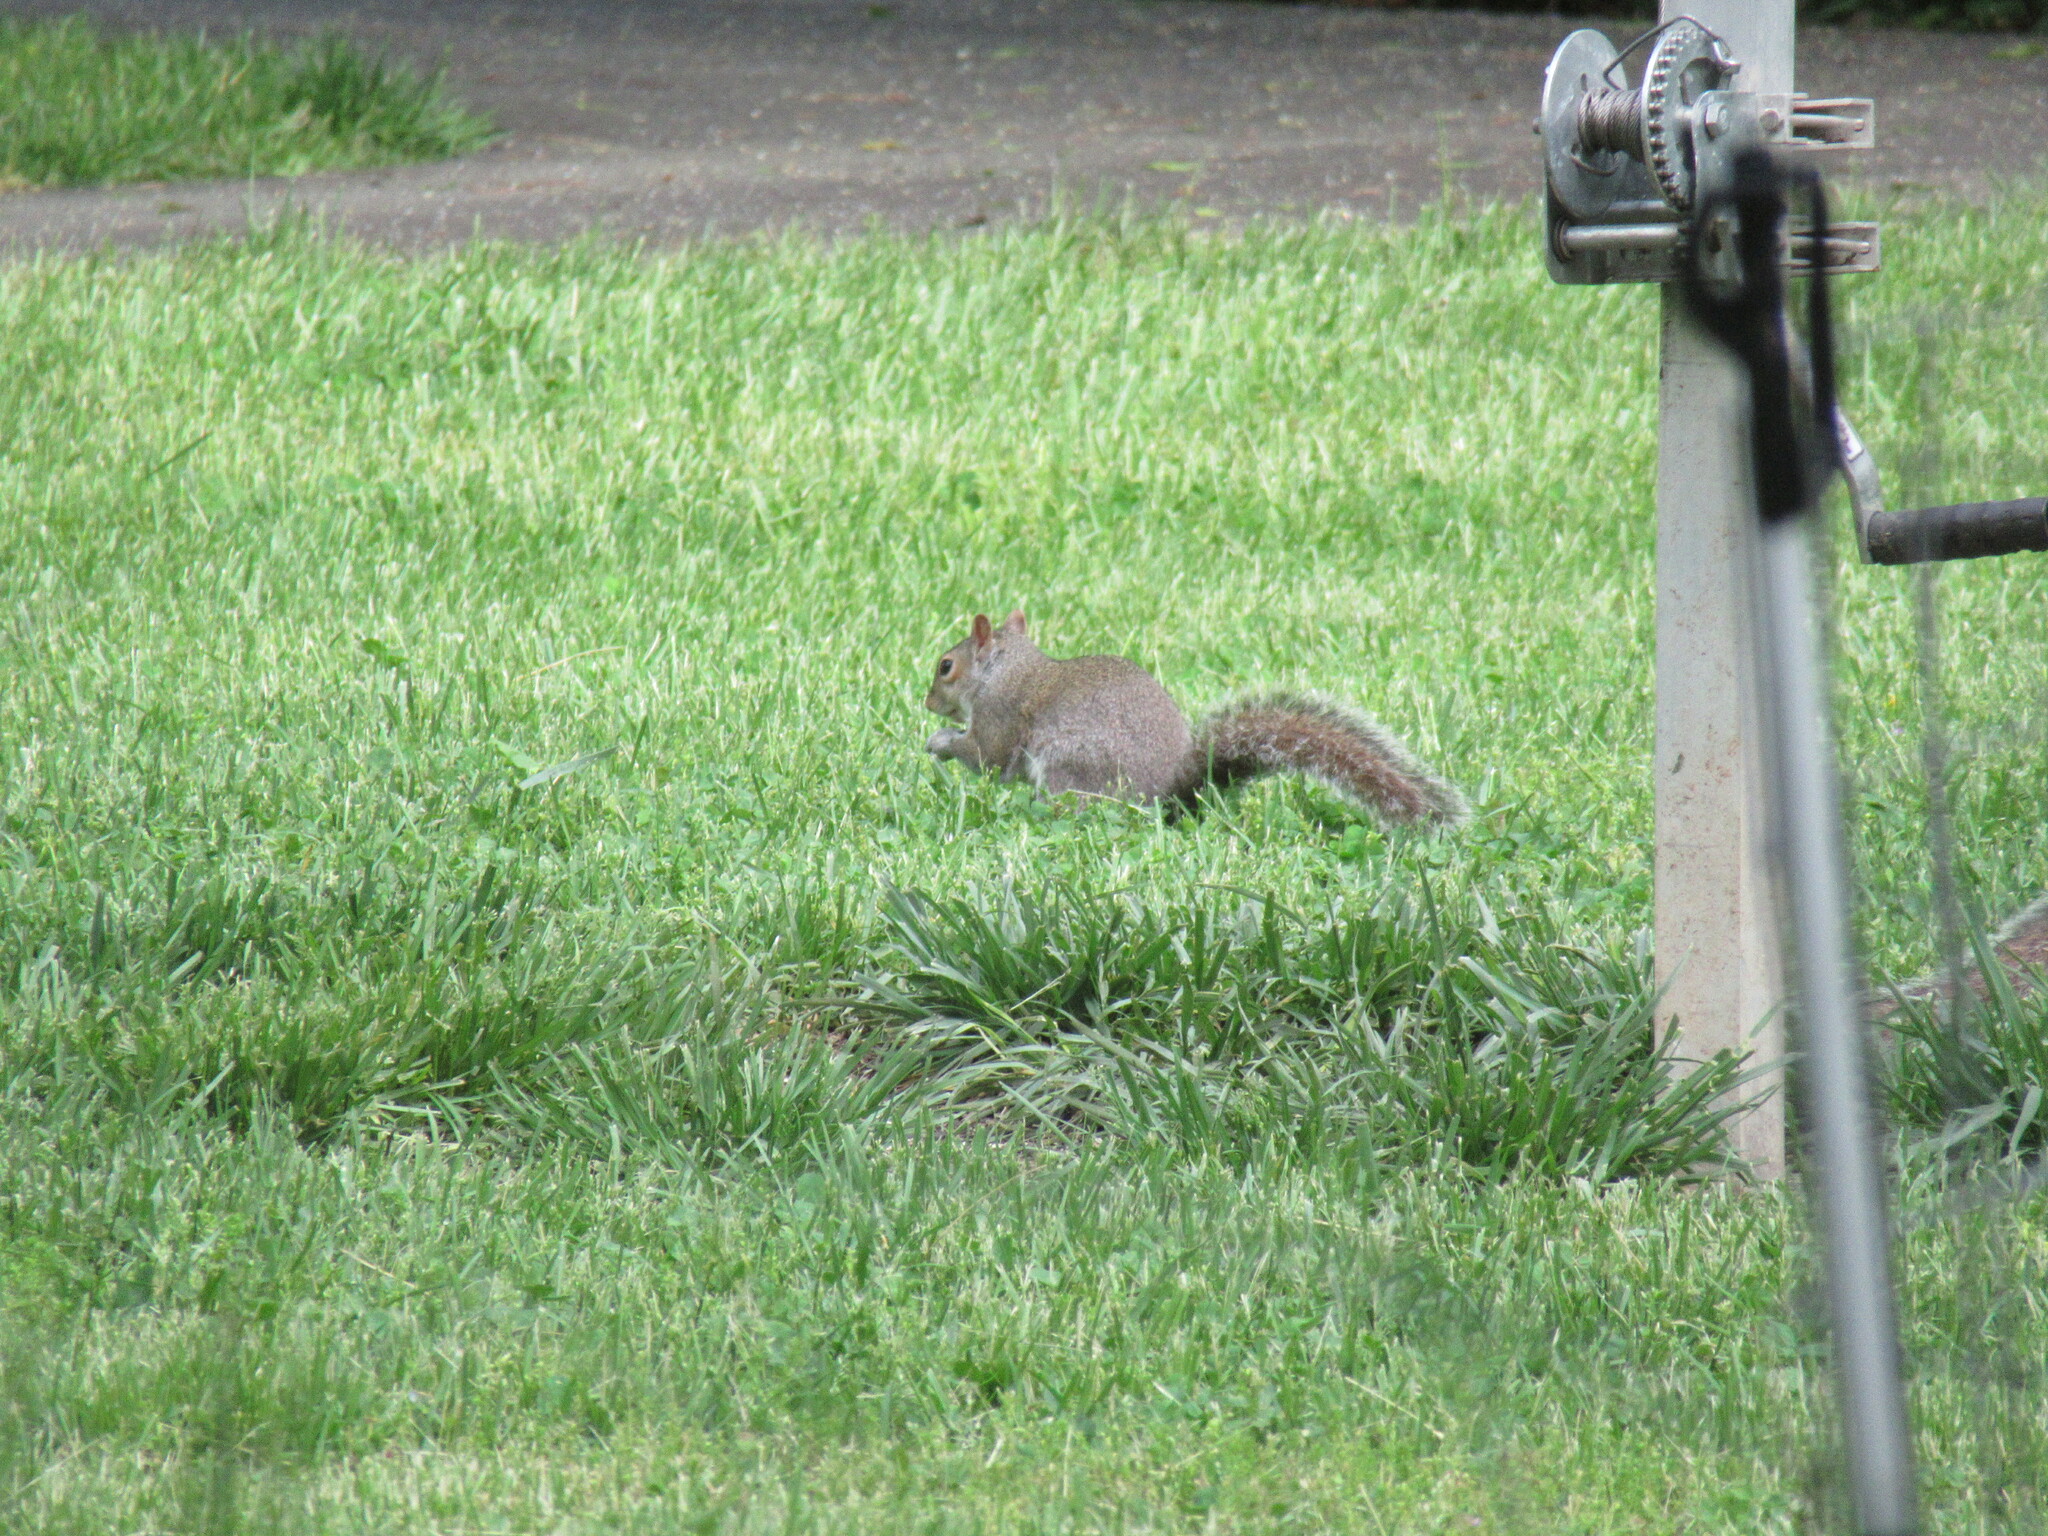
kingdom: Animalia
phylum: Chordata
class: Mammalia
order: Rodentia
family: Sciuridae
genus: Sciurus
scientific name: Sciurus carolinensis
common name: Eastern gray squirrel
